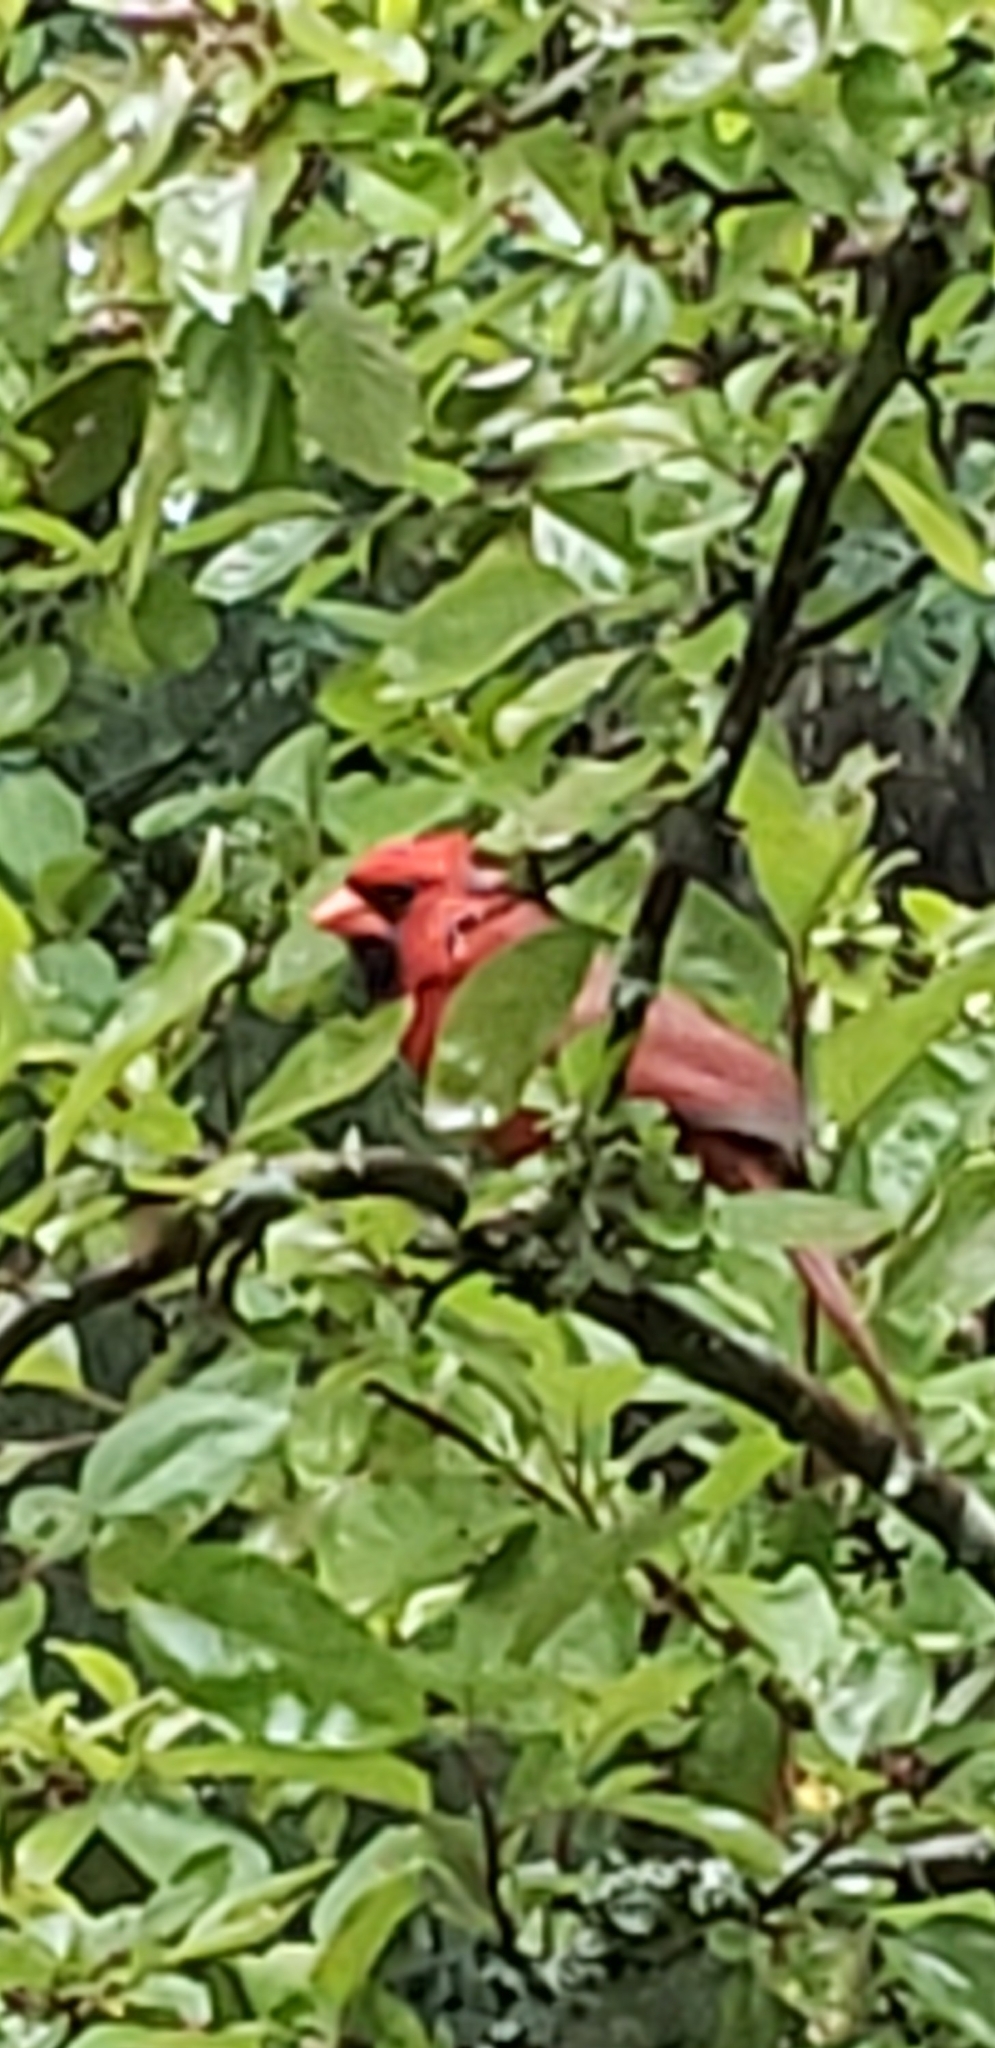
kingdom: Animalia
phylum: Chordata
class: Aves
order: Passeriformes
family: Cardinalidae
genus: Cardinalis
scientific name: Cardinalis cardinalis
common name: Northern cardinal
